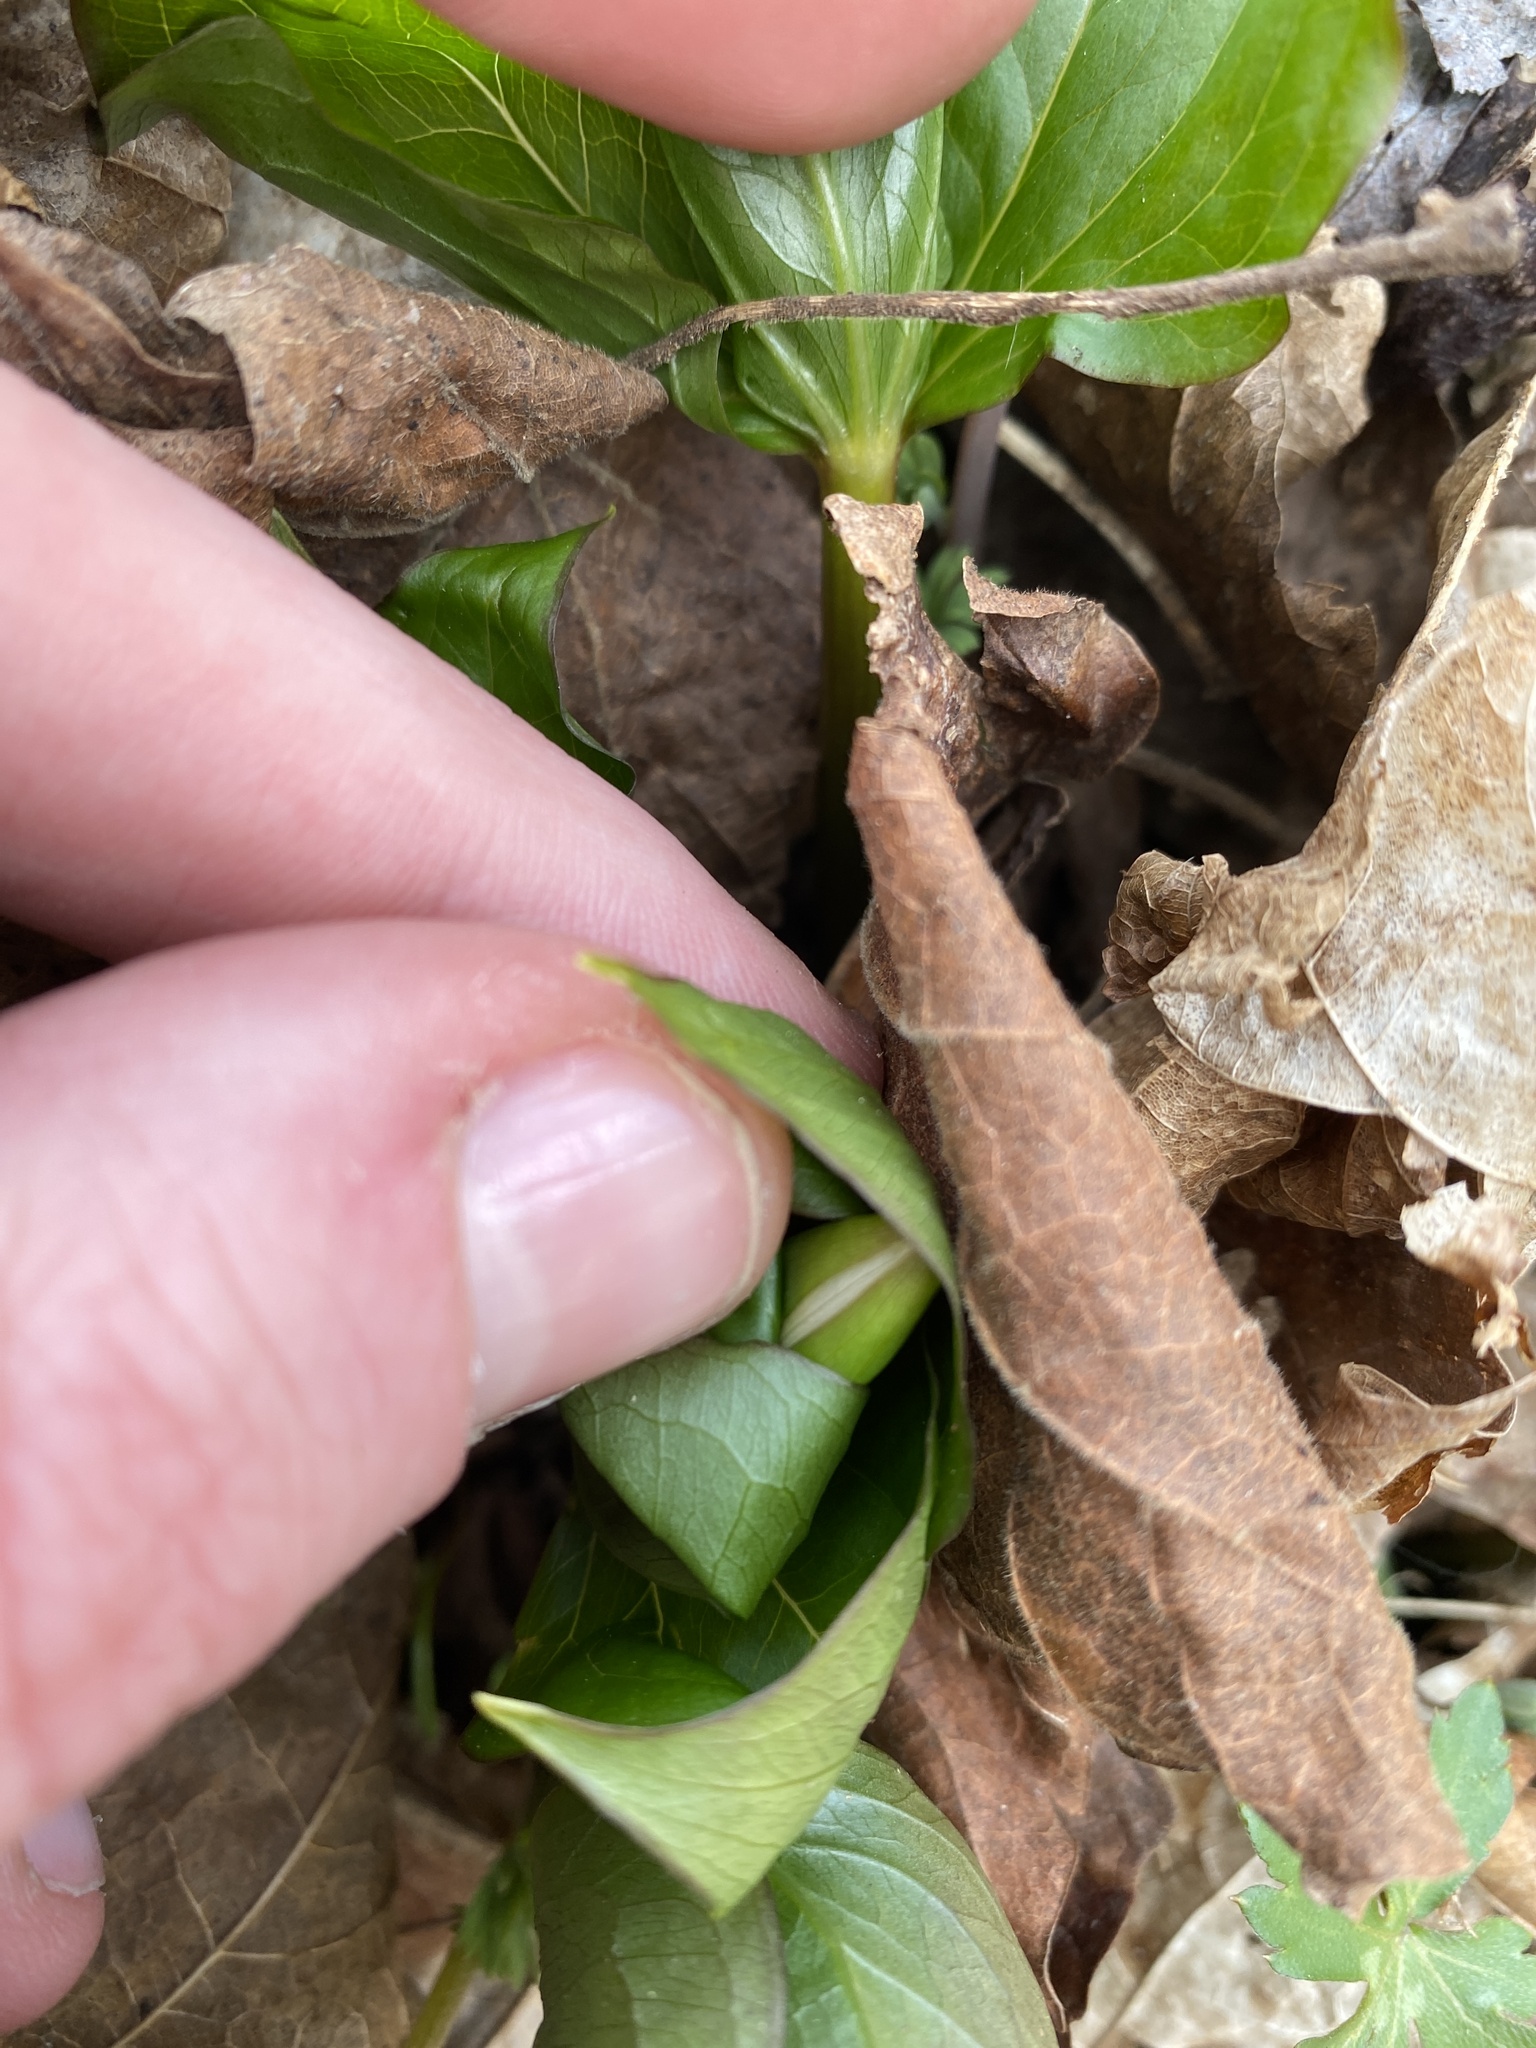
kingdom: Plantae
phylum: Tracheophyta
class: Liliopsida
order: Liliales
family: Melanthiaceae
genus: Trillium
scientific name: Trillium grandiflorum
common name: Great white trillium
